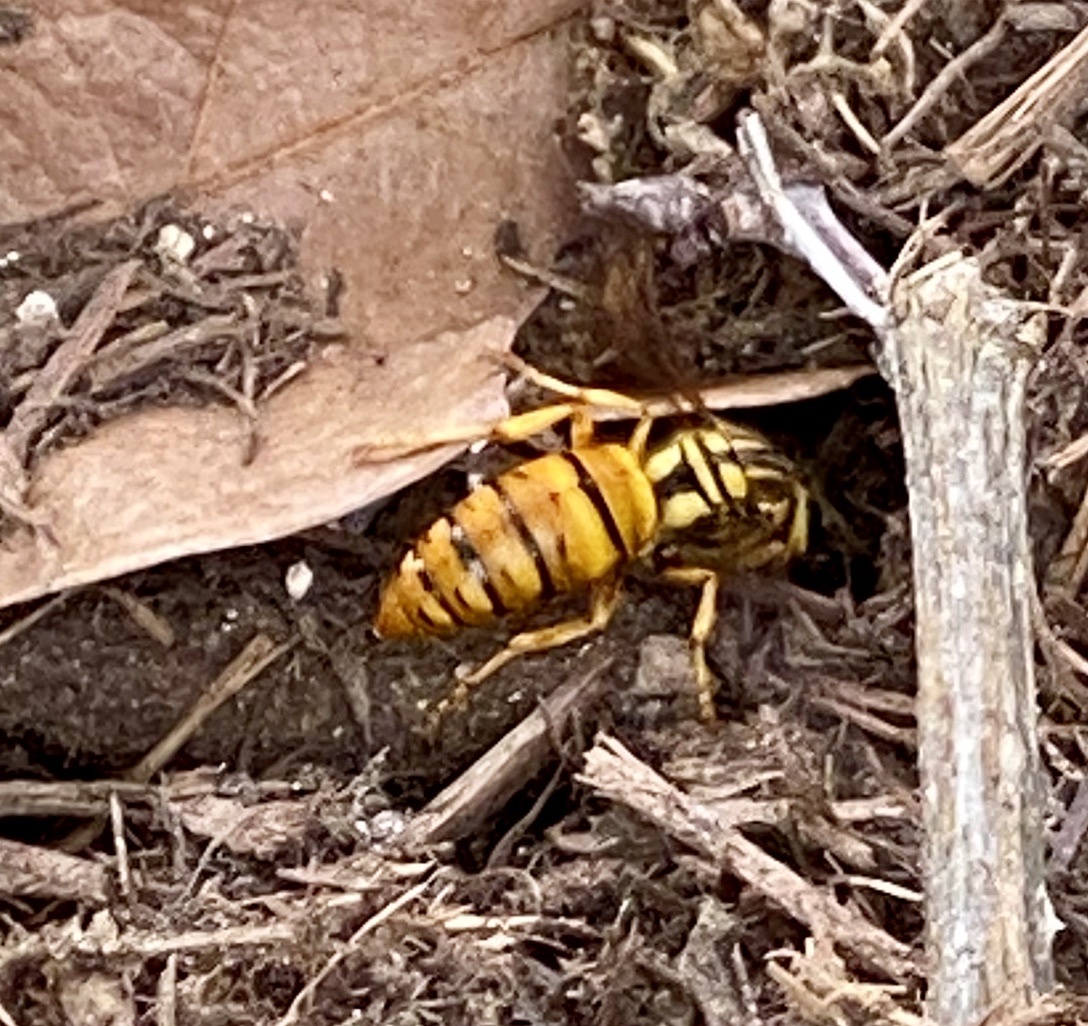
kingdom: Animalia
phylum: Arthropoda
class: Insecta
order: Hymenoptera
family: Vespidae
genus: Vespula
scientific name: Vespula squamosa
